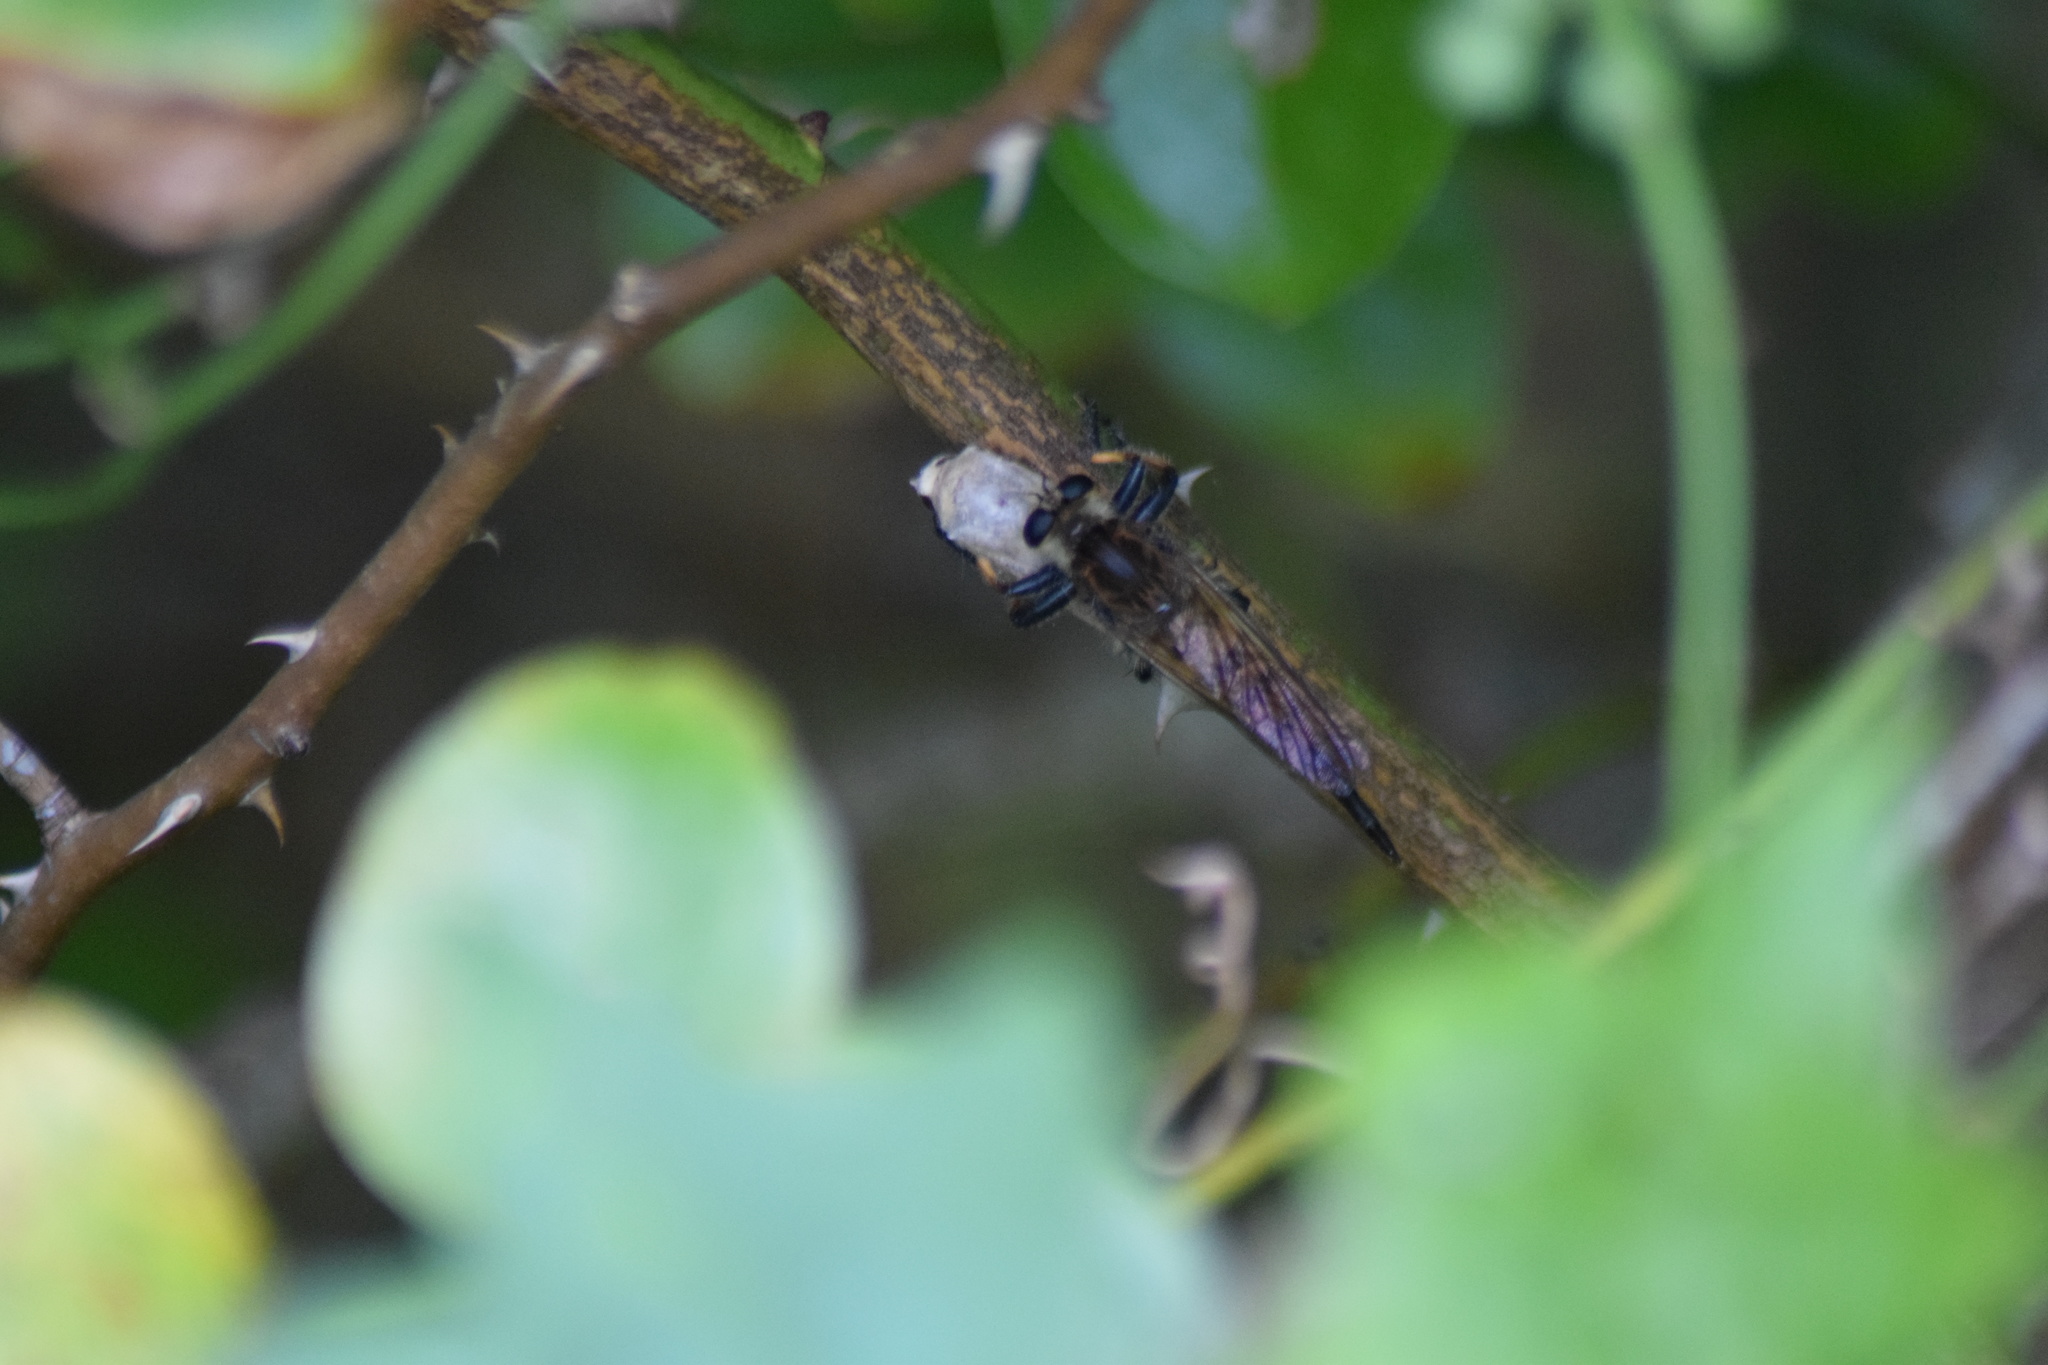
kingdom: Animalia
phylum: Arthropoda
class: Insecta
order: Diptera
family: Asilidae
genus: Promachus
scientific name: Promachus rufipes
